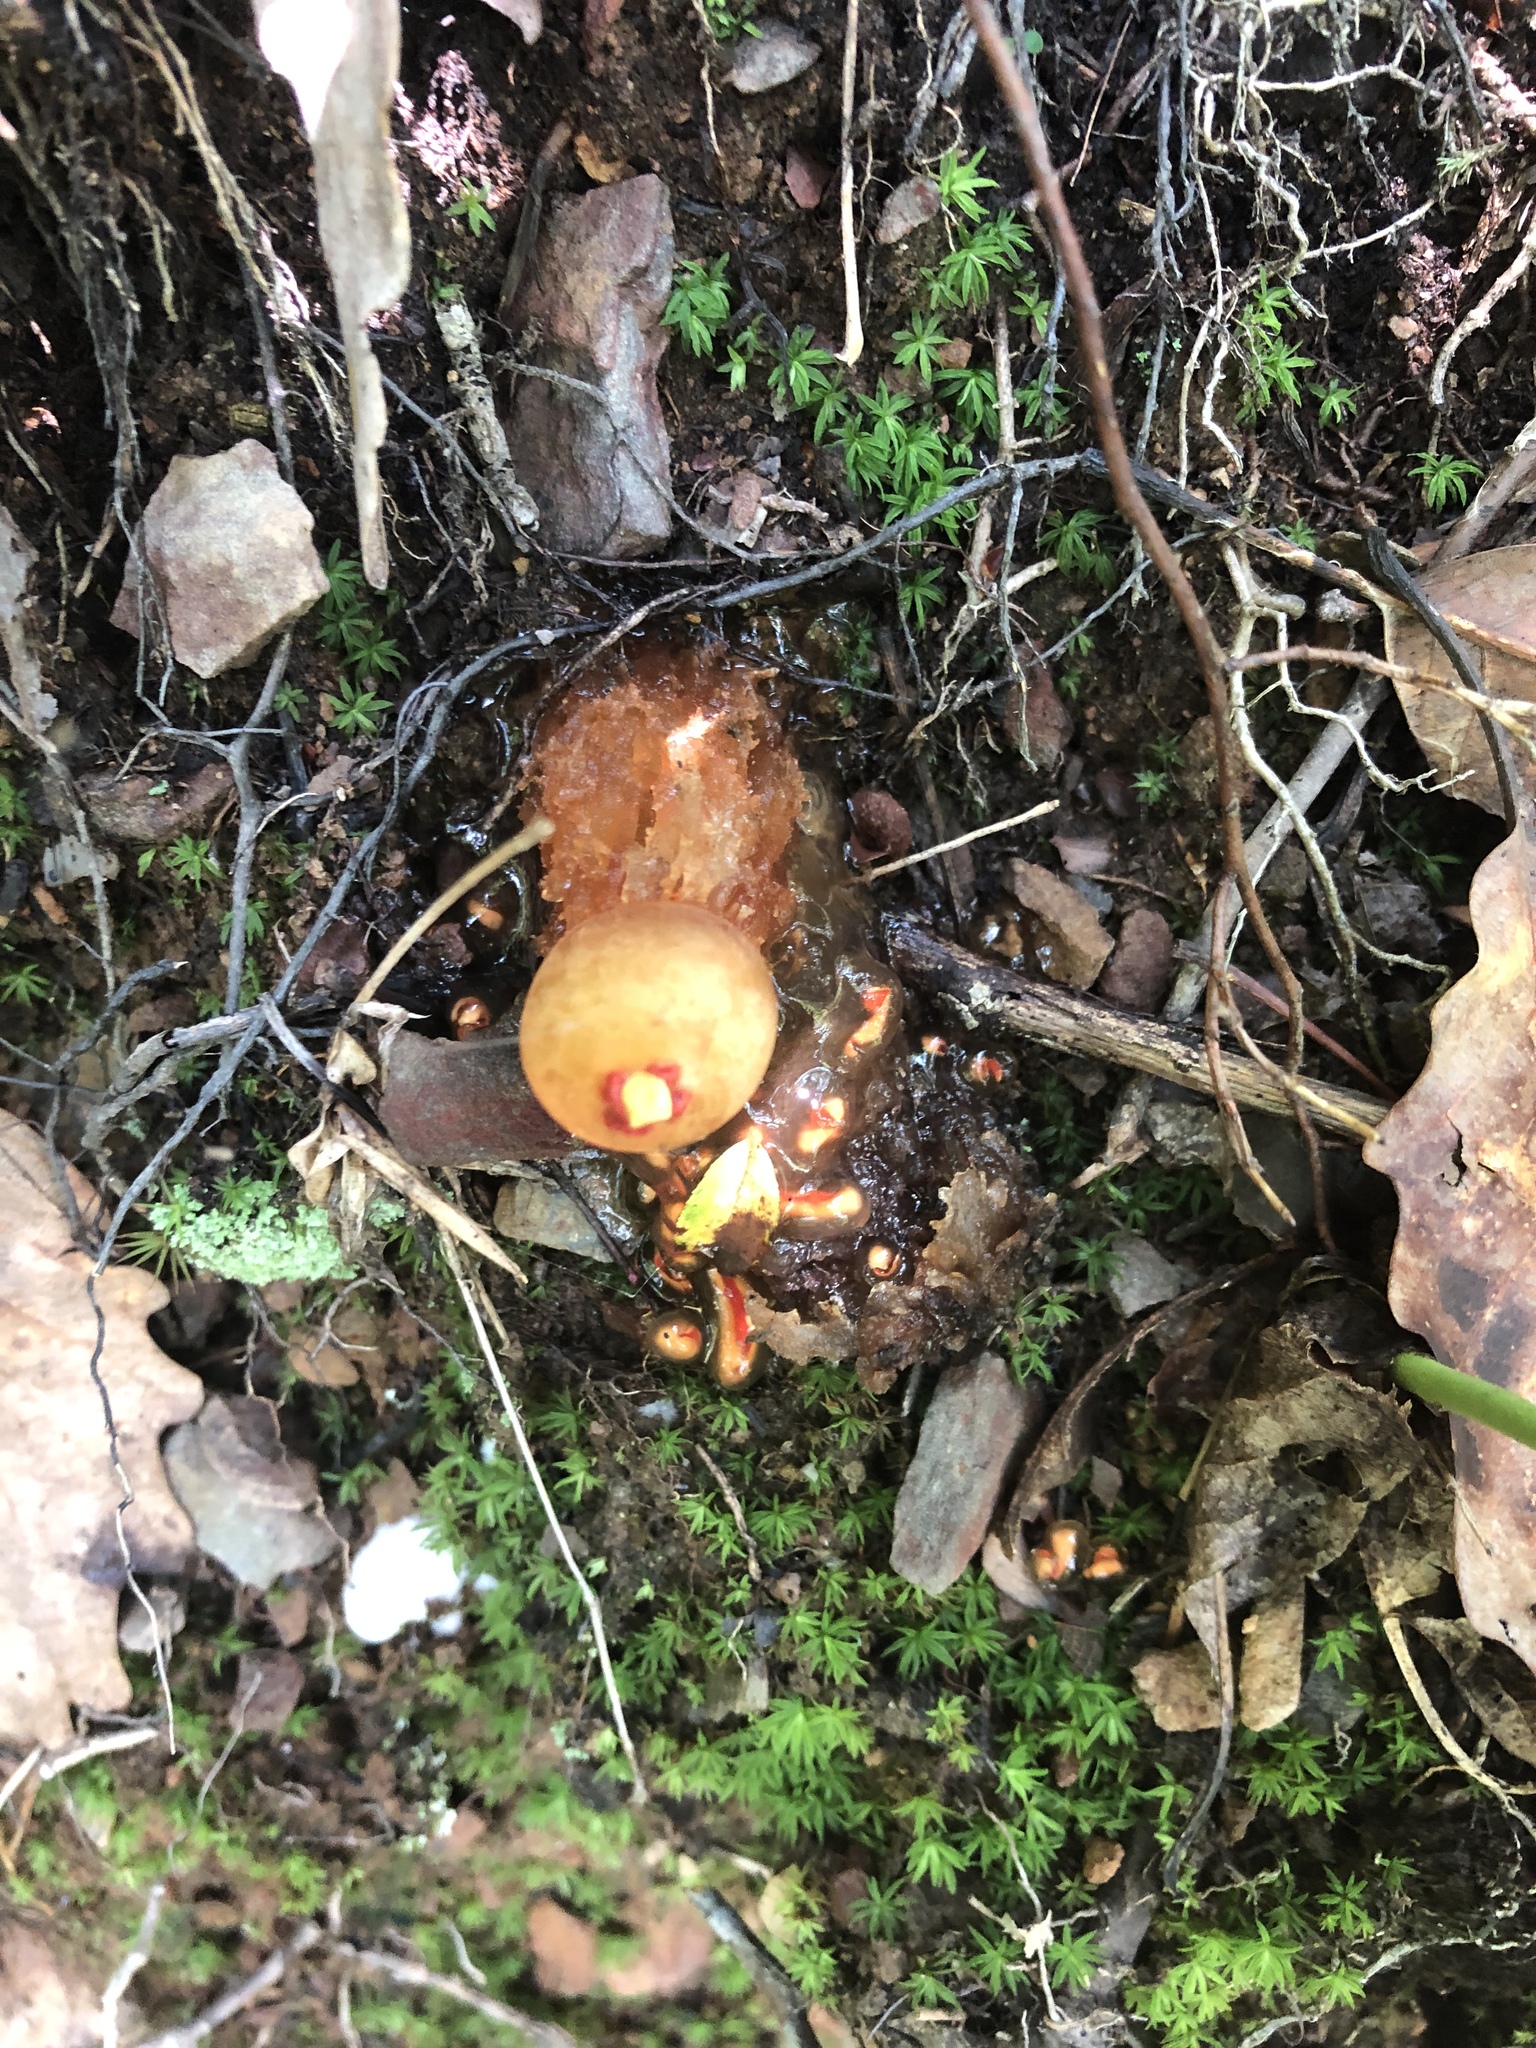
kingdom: Fungi
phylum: Basidiomycota
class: Agaricomycetes
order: Boletales
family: Calostomataceae
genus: Calostoma
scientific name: Calostoma cinnabarinum
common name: Stalked puffball-in-aspic
